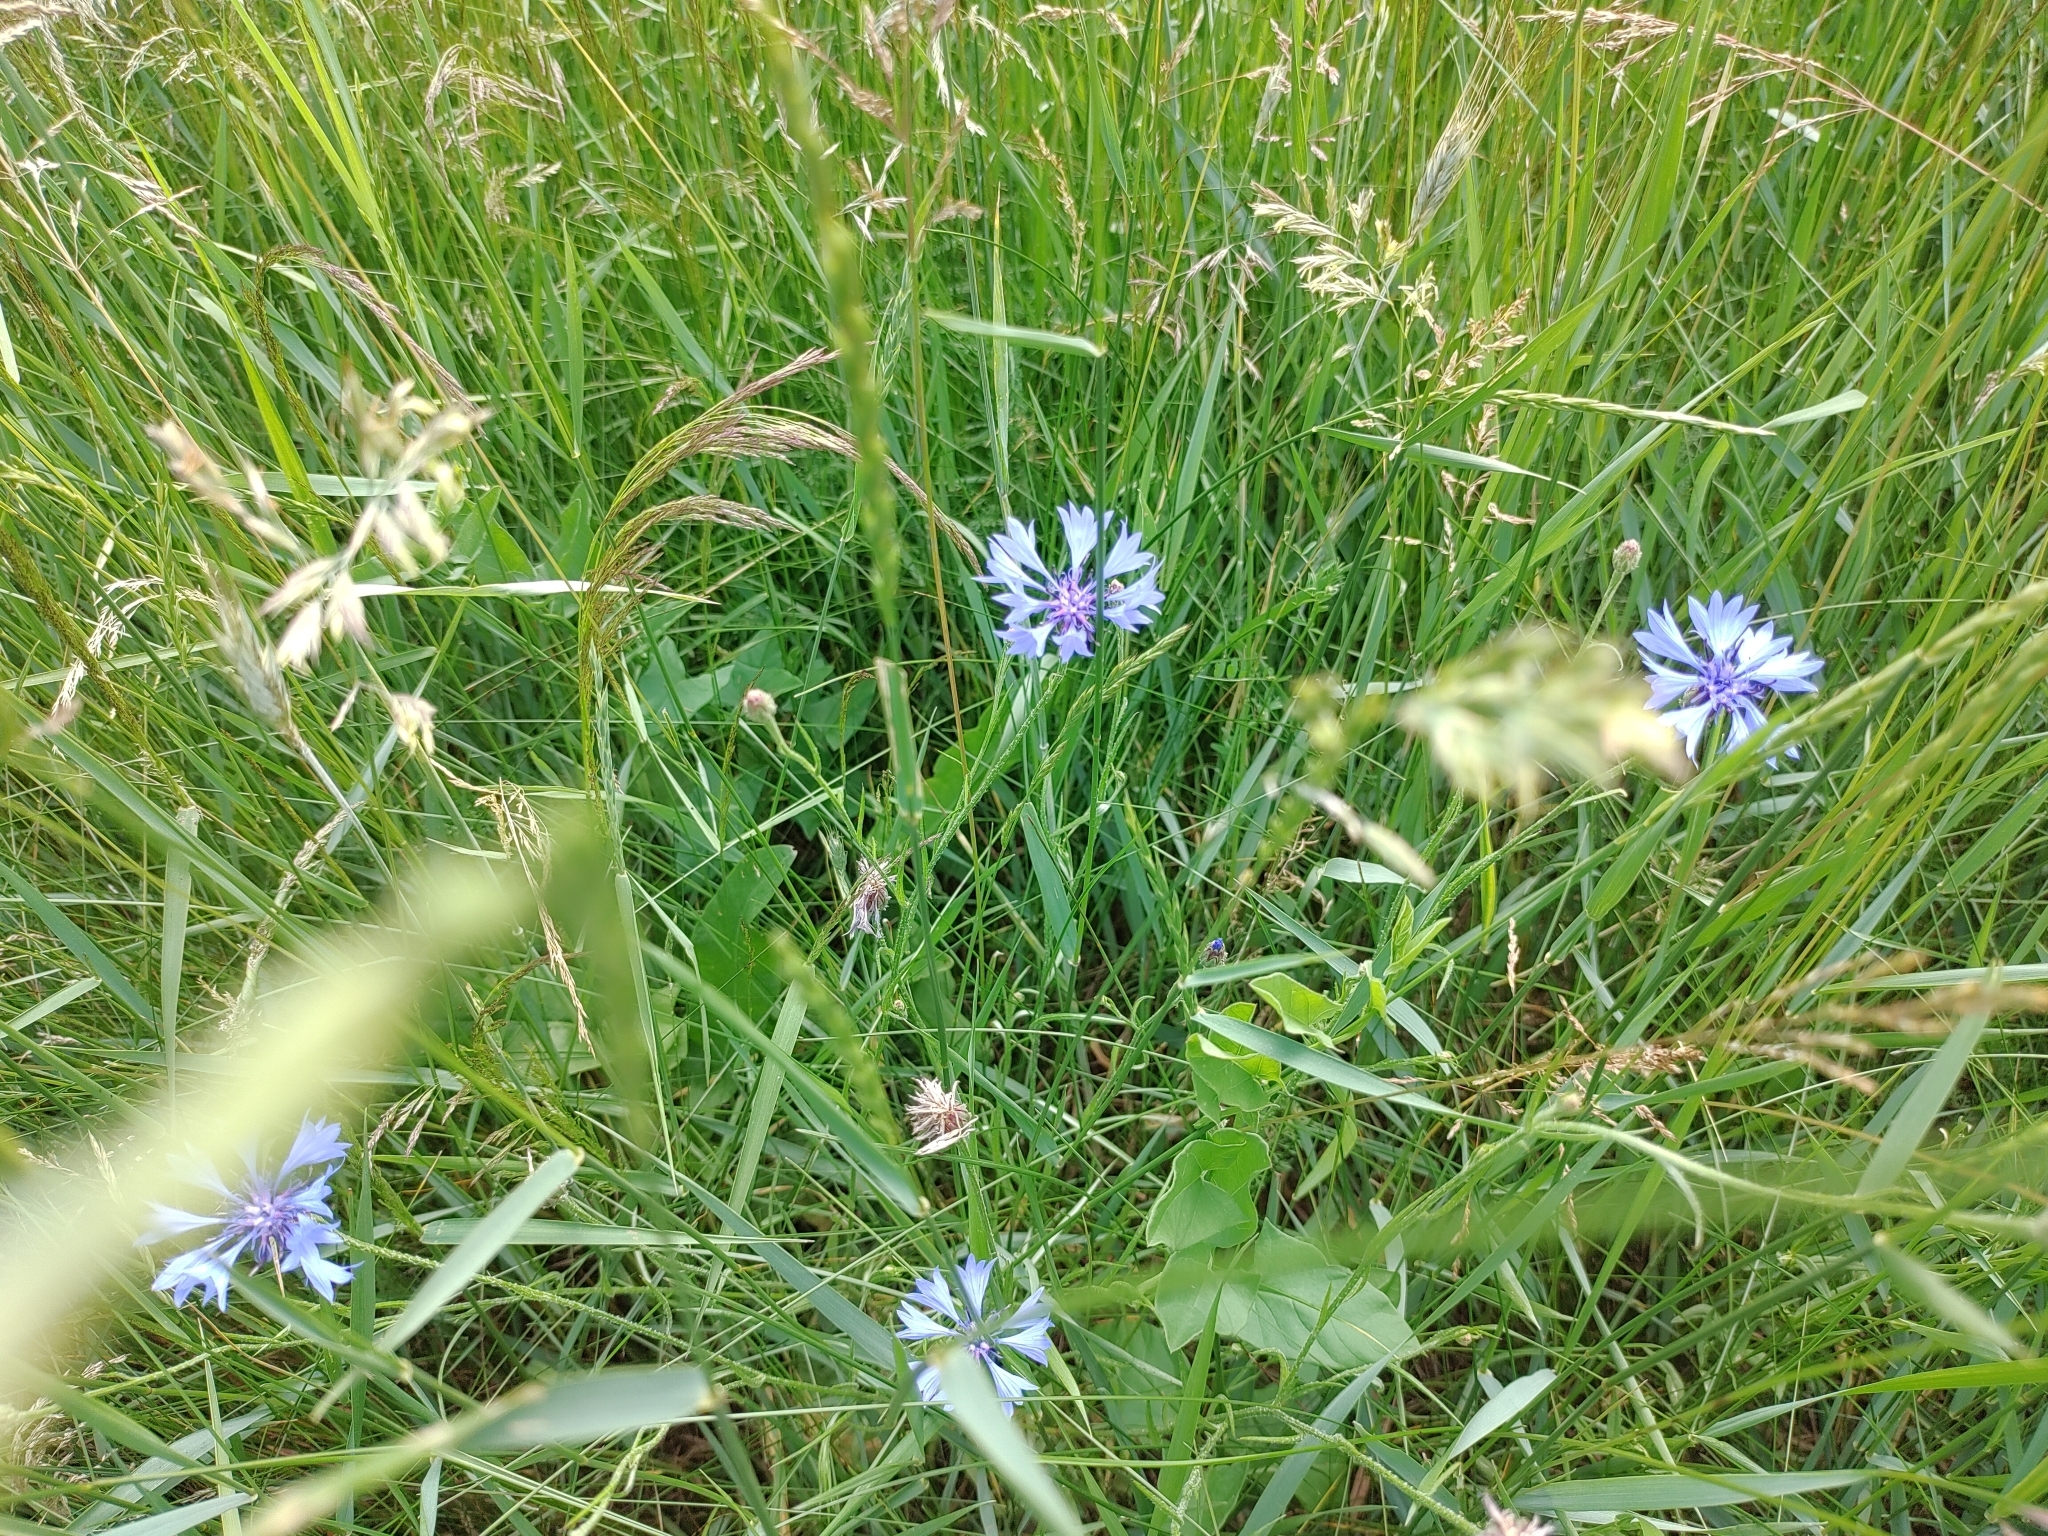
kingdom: Plantae
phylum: Tracheophyta
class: Magnoliopsida
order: Asterales
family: Asteraceae
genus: Centaurea
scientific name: Centaurea cyanus
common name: Cornflower
